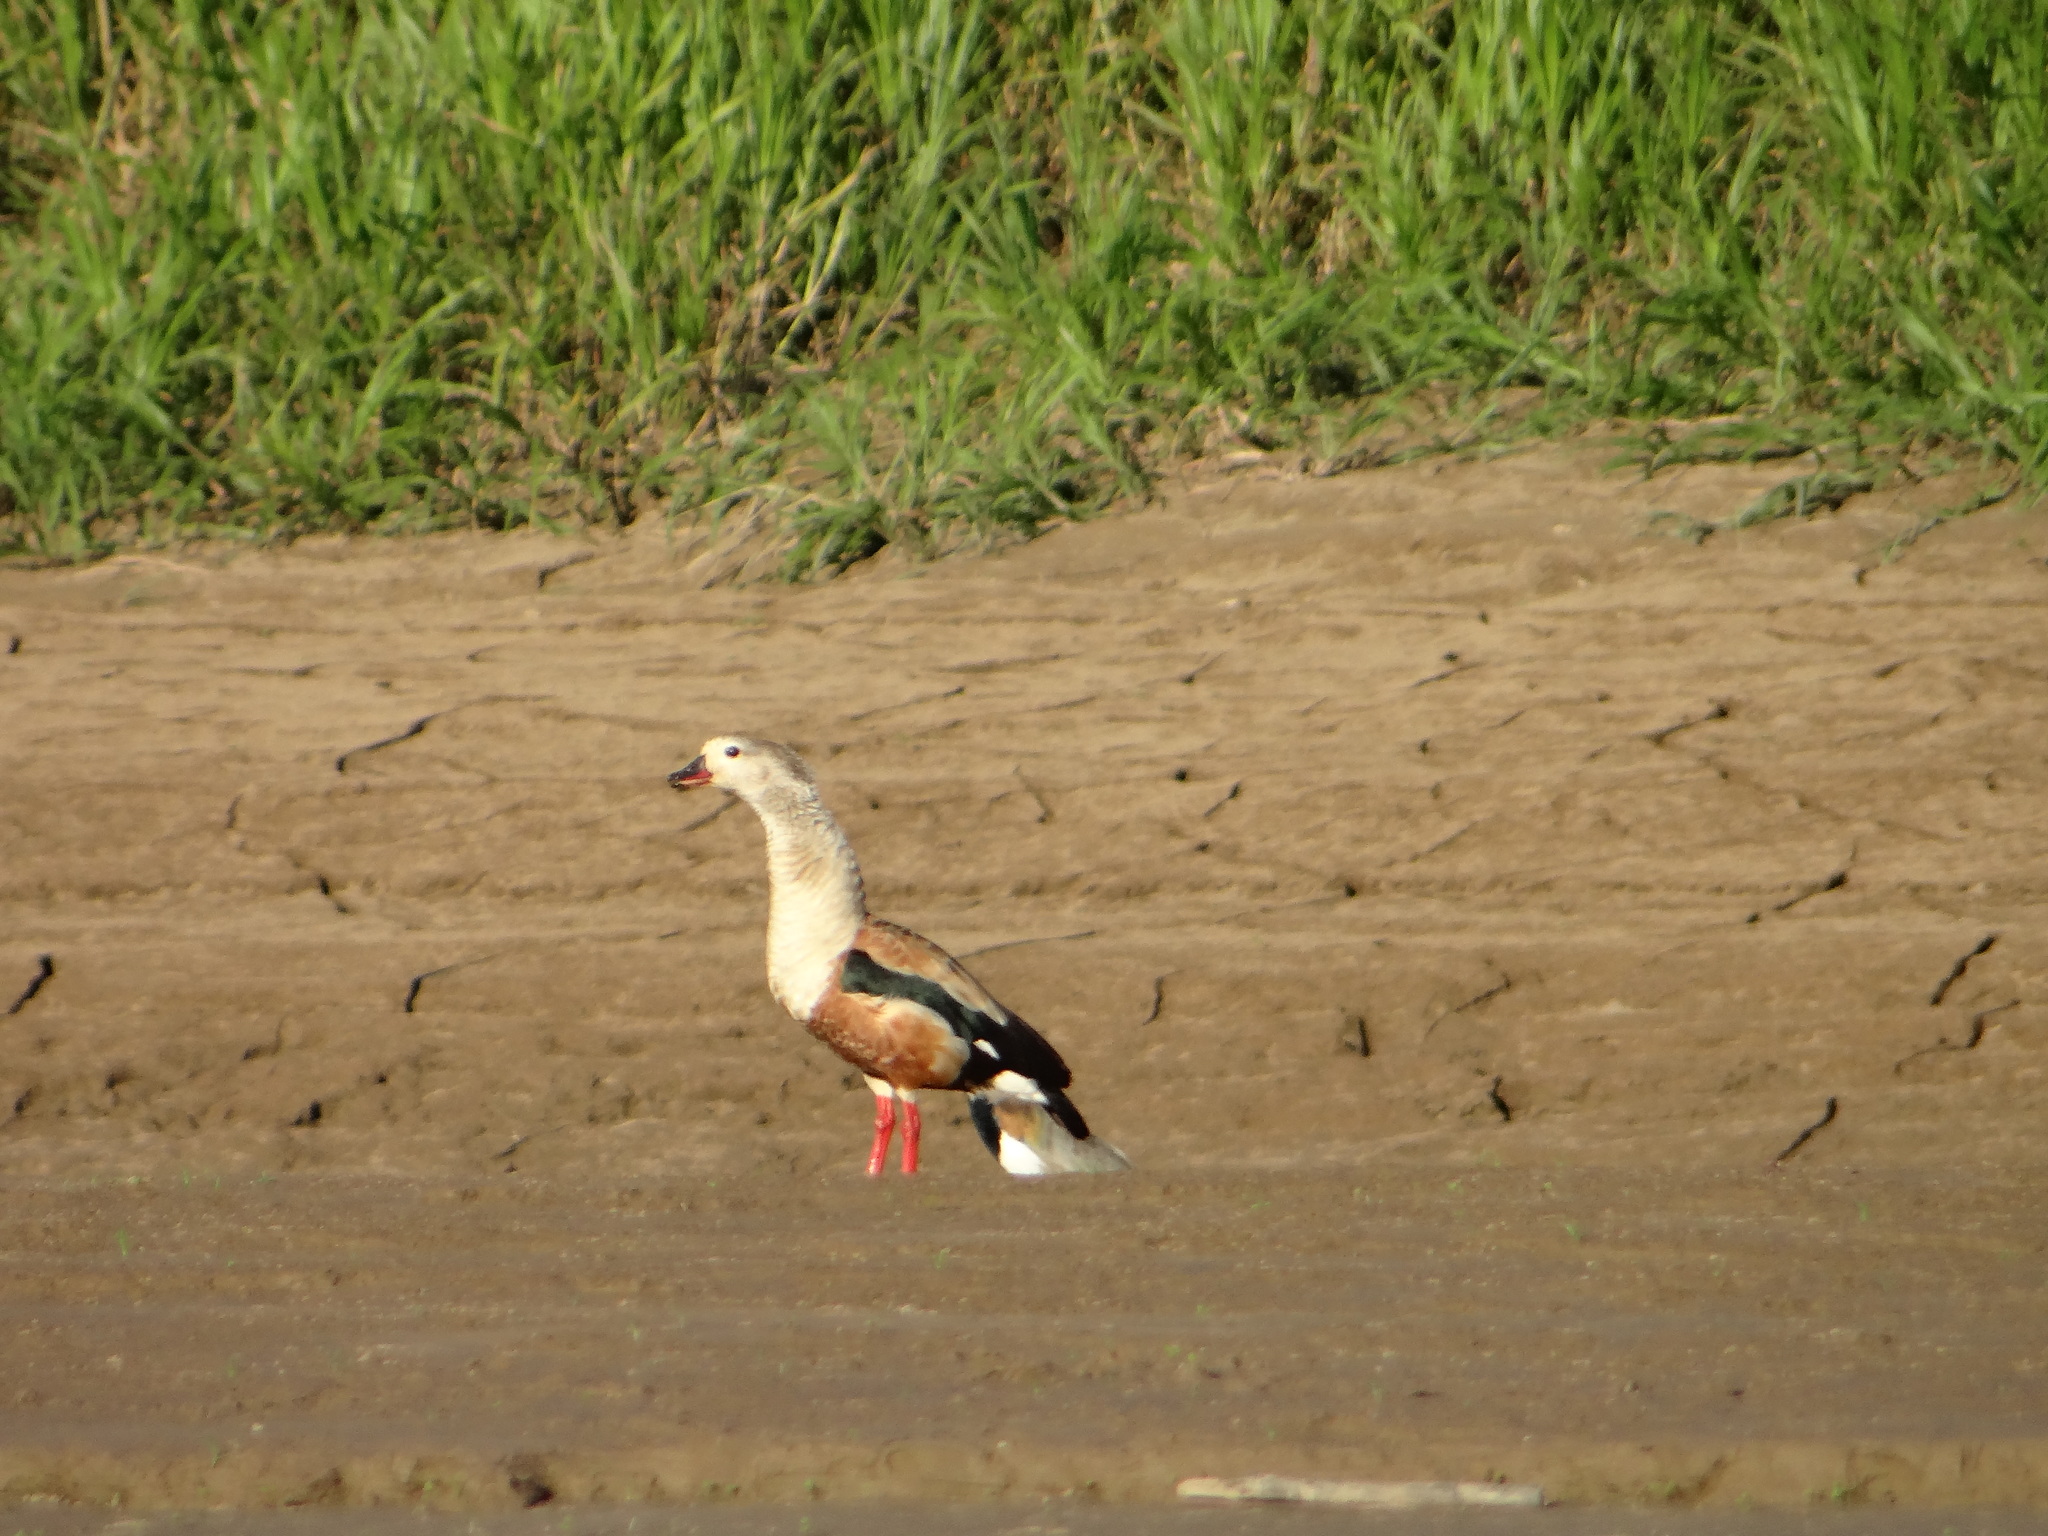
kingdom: Animalia
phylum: Chordata
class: Aves
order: Anseriformes
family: Anatidae
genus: Oressochen
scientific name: Oressochen jubatus
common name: Orinoco goose
